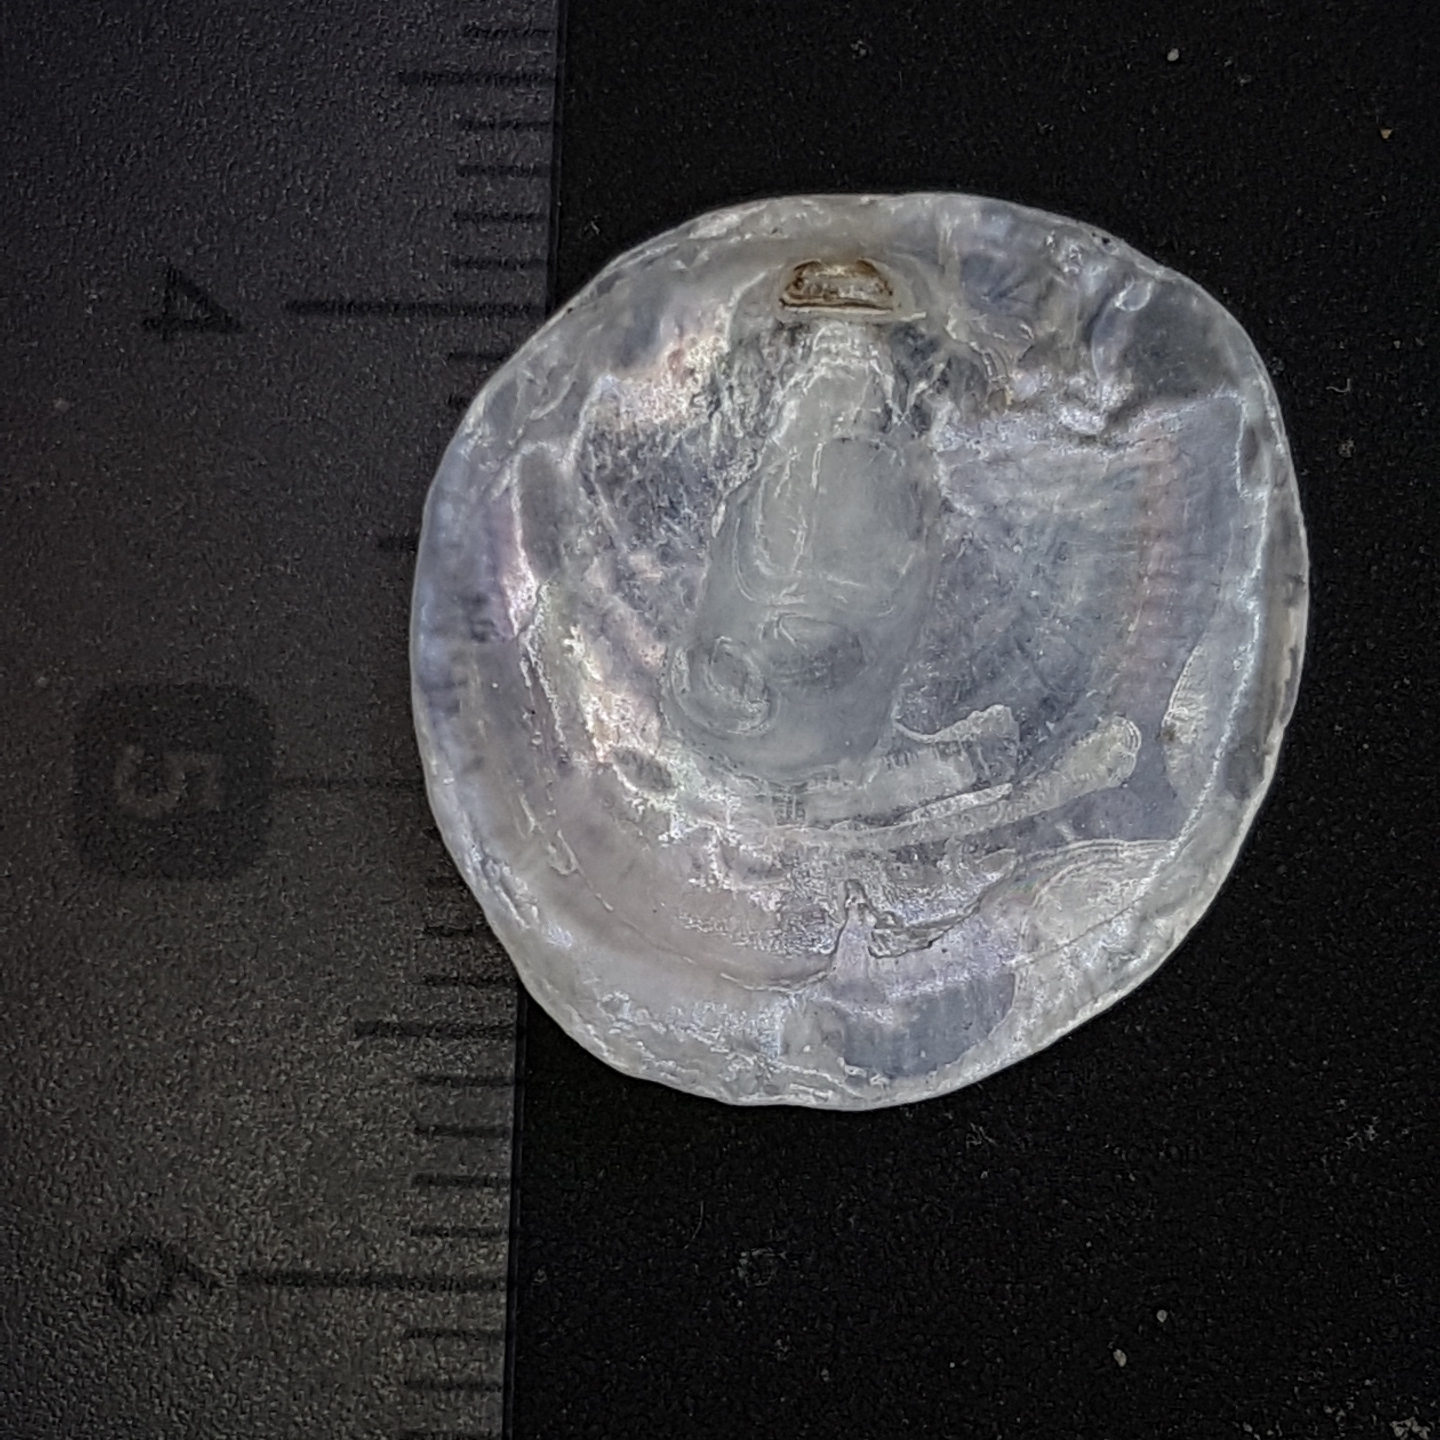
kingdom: Animalia
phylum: Mollusca
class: Bivalvia
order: Pectinida
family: Anomiidae
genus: Anomia
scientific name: Anomia ephippium
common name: Saddle oyster
